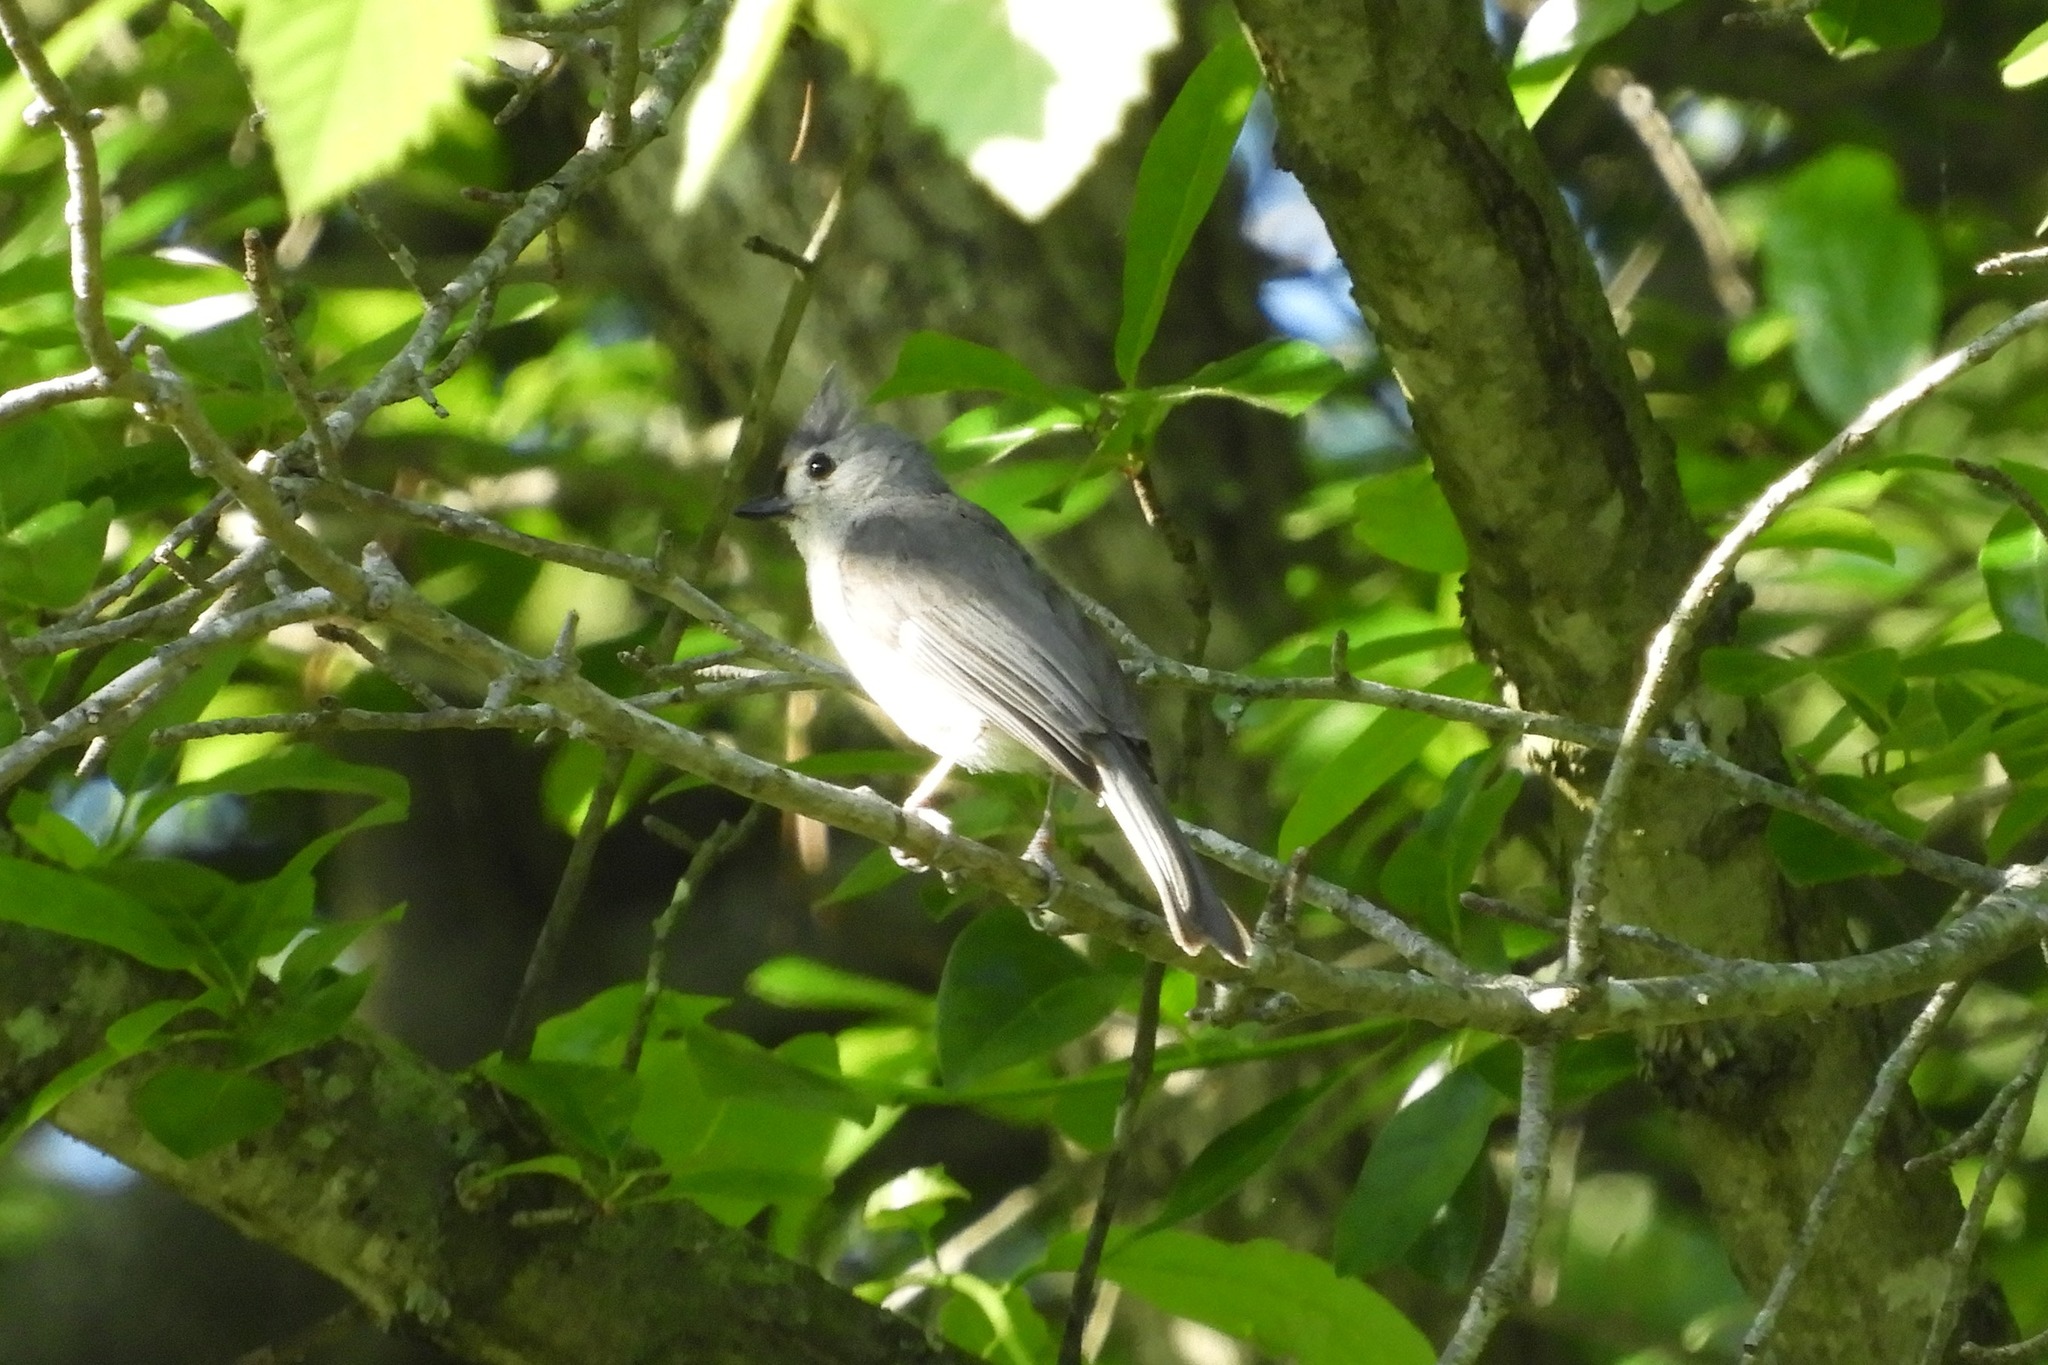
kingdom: Animalia
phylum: Chordata
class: Aves
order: Passeriformes
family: Paridae
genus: Baeolophus
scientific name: Baeolophus bicolor
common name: Tufted titmouse
